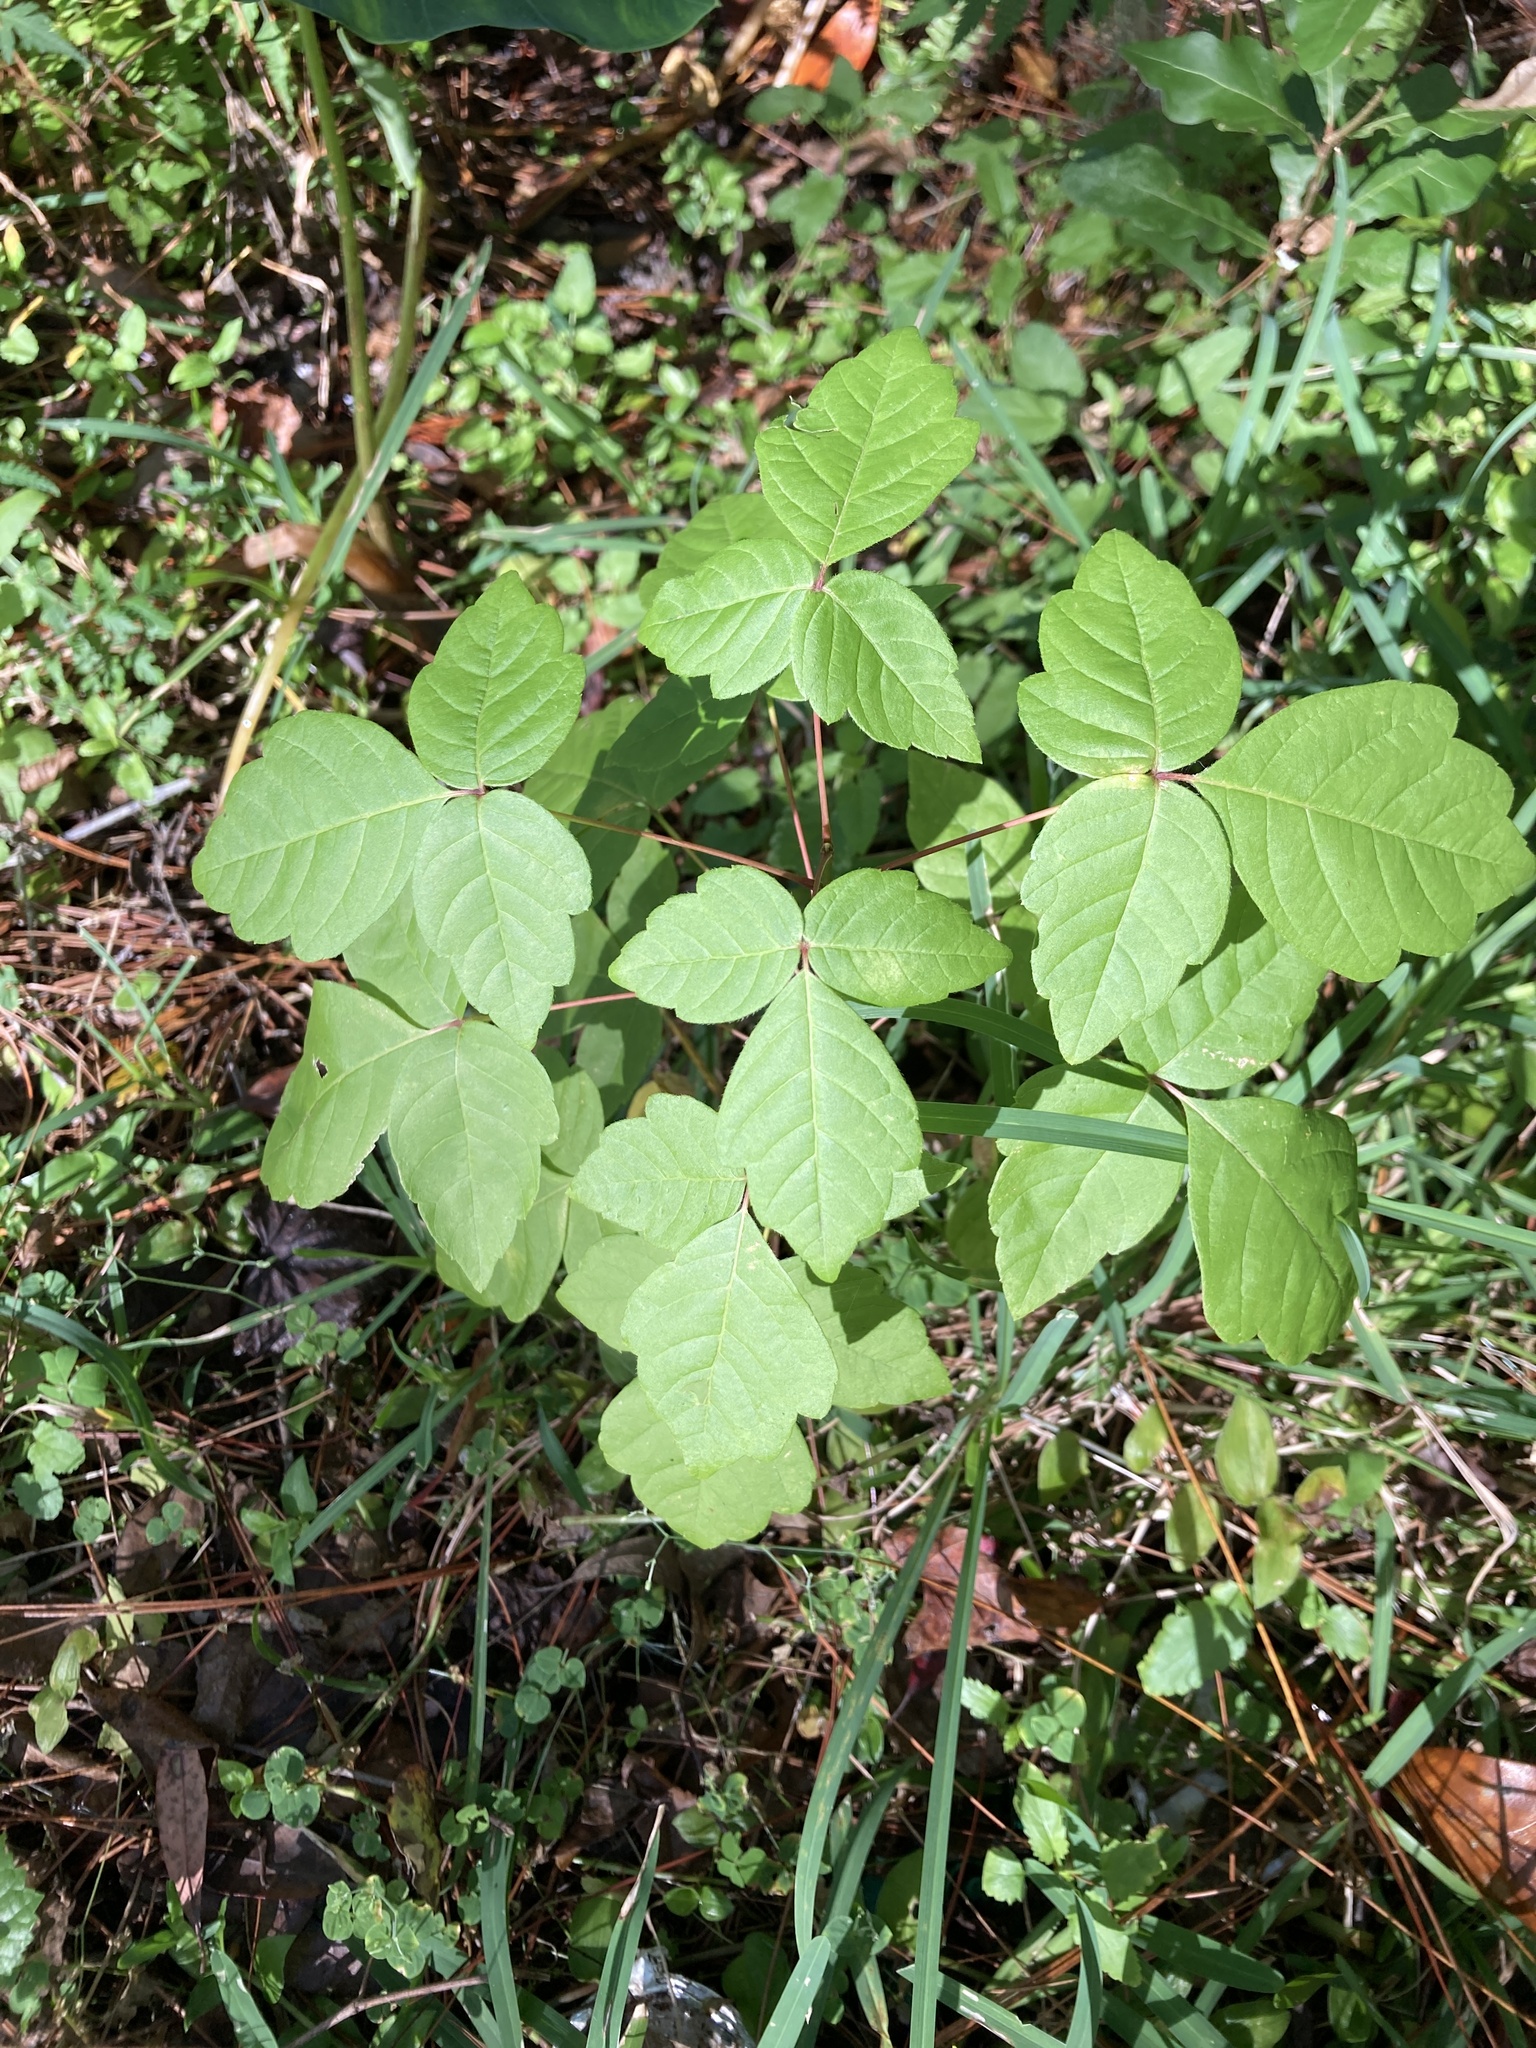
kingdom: Plantae
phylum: Tracheophyta
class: Magnoliopsida
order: Sapindales
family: Sapindaceae
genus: Acer
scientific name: Acer negundo
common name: Ashleaf maple
